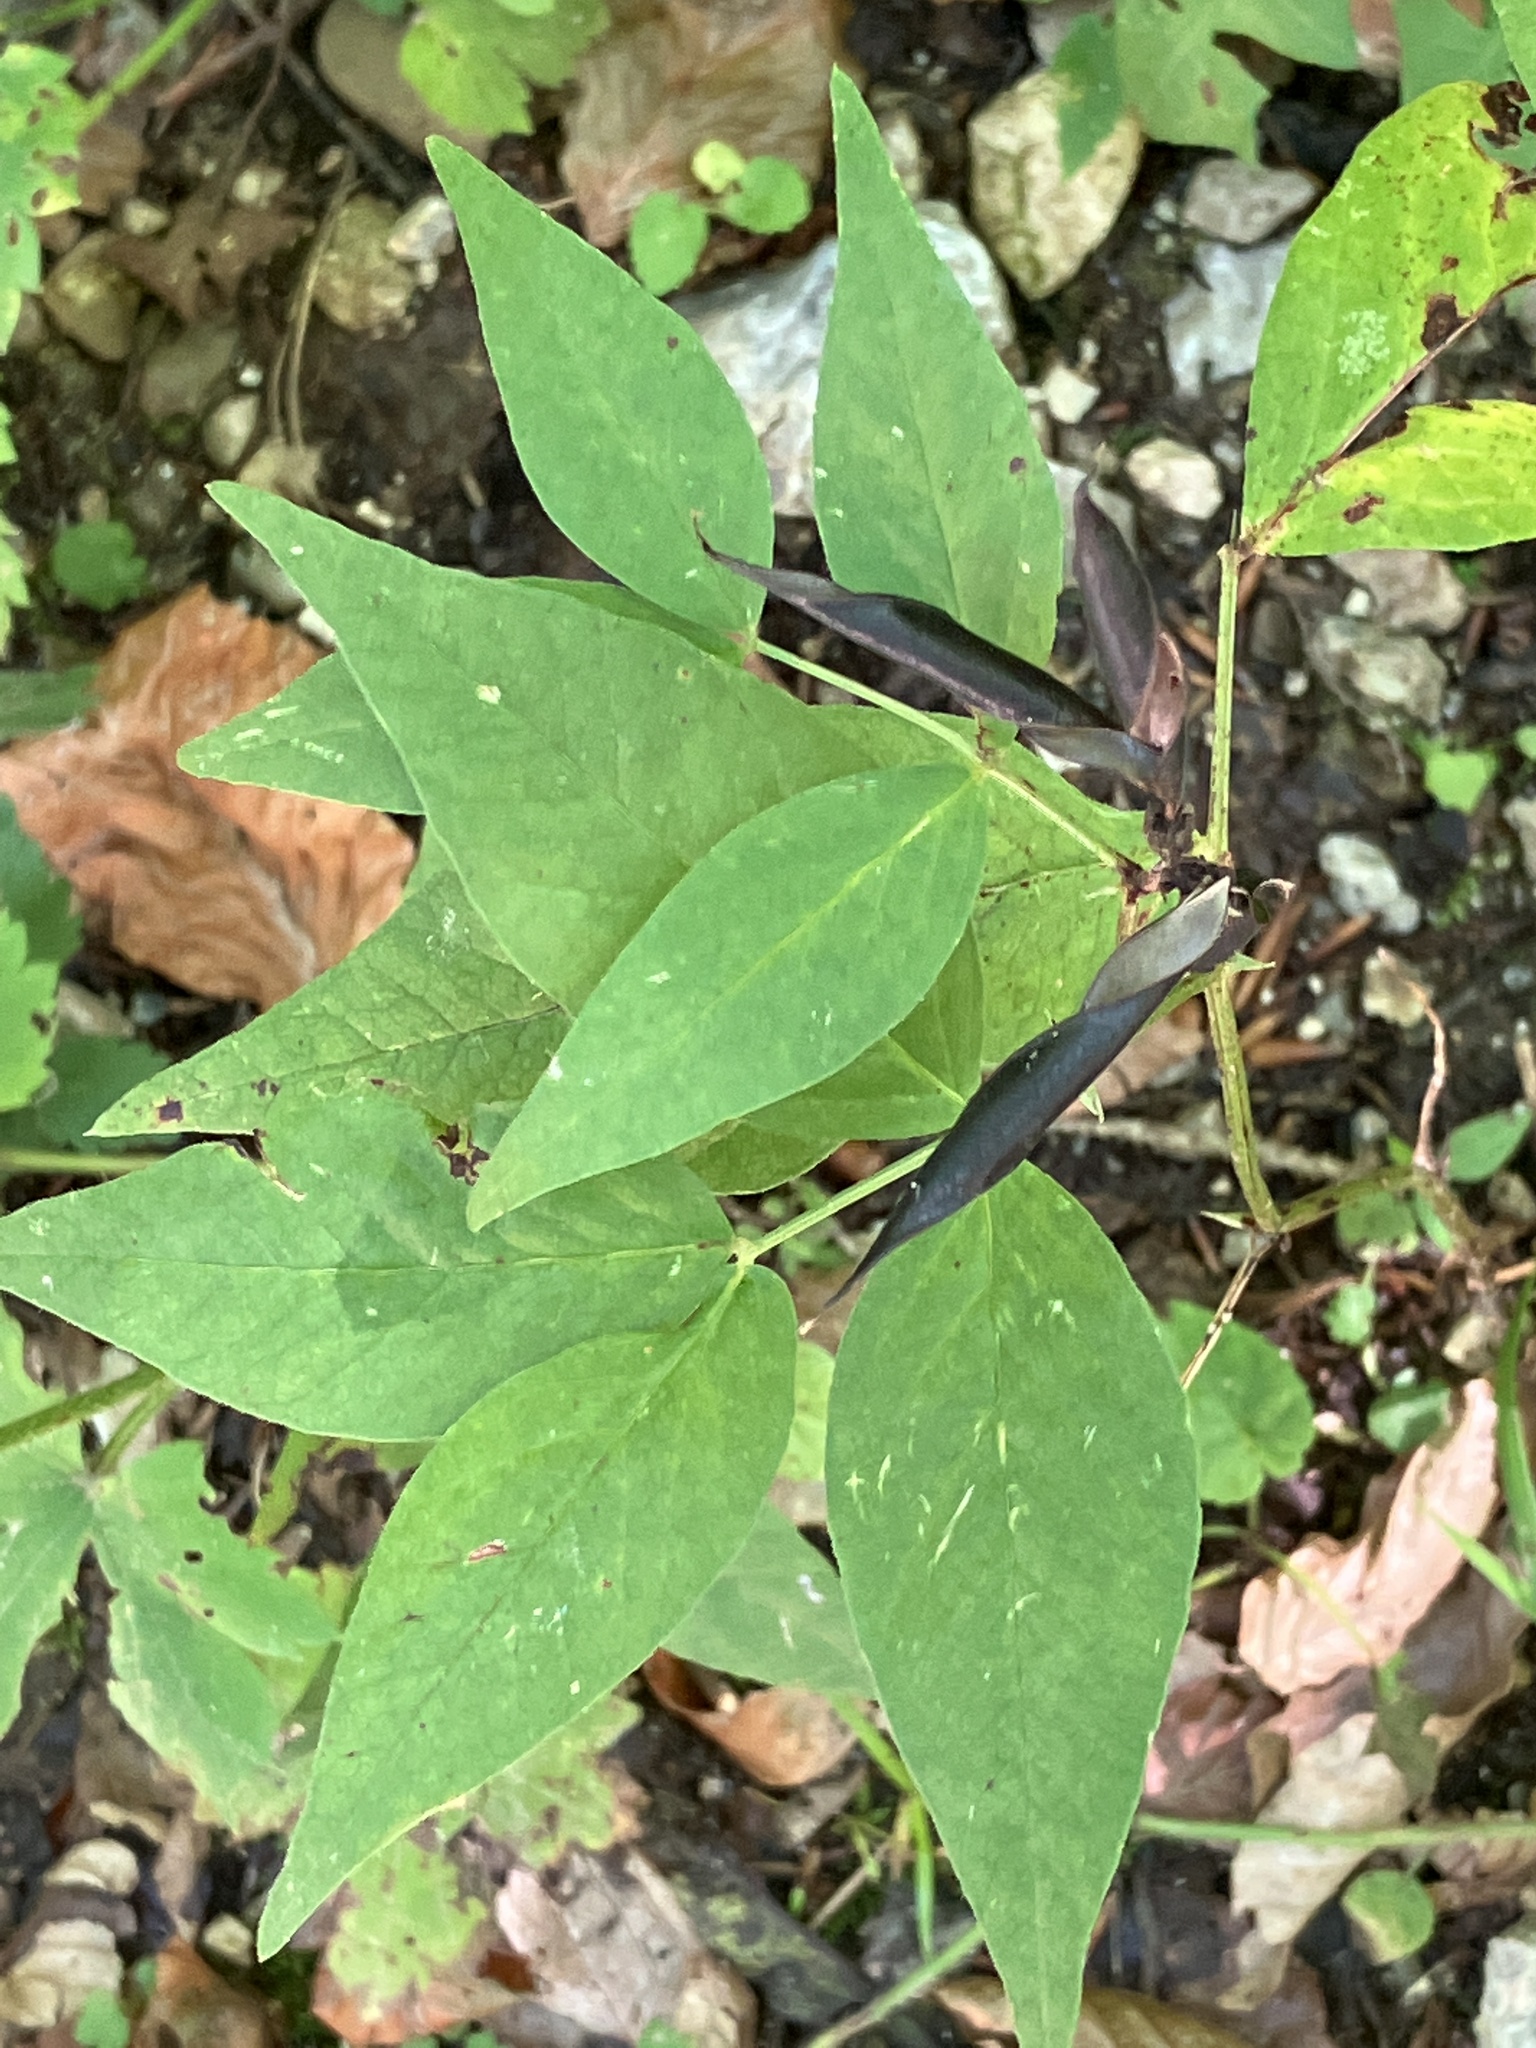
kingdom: Plantae
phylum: Tracheophyta
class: Magnoliopsida
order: Fabales
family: Fabaceae
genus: Lathyrus
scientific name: Lathyrus vernus
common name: Spring pea
